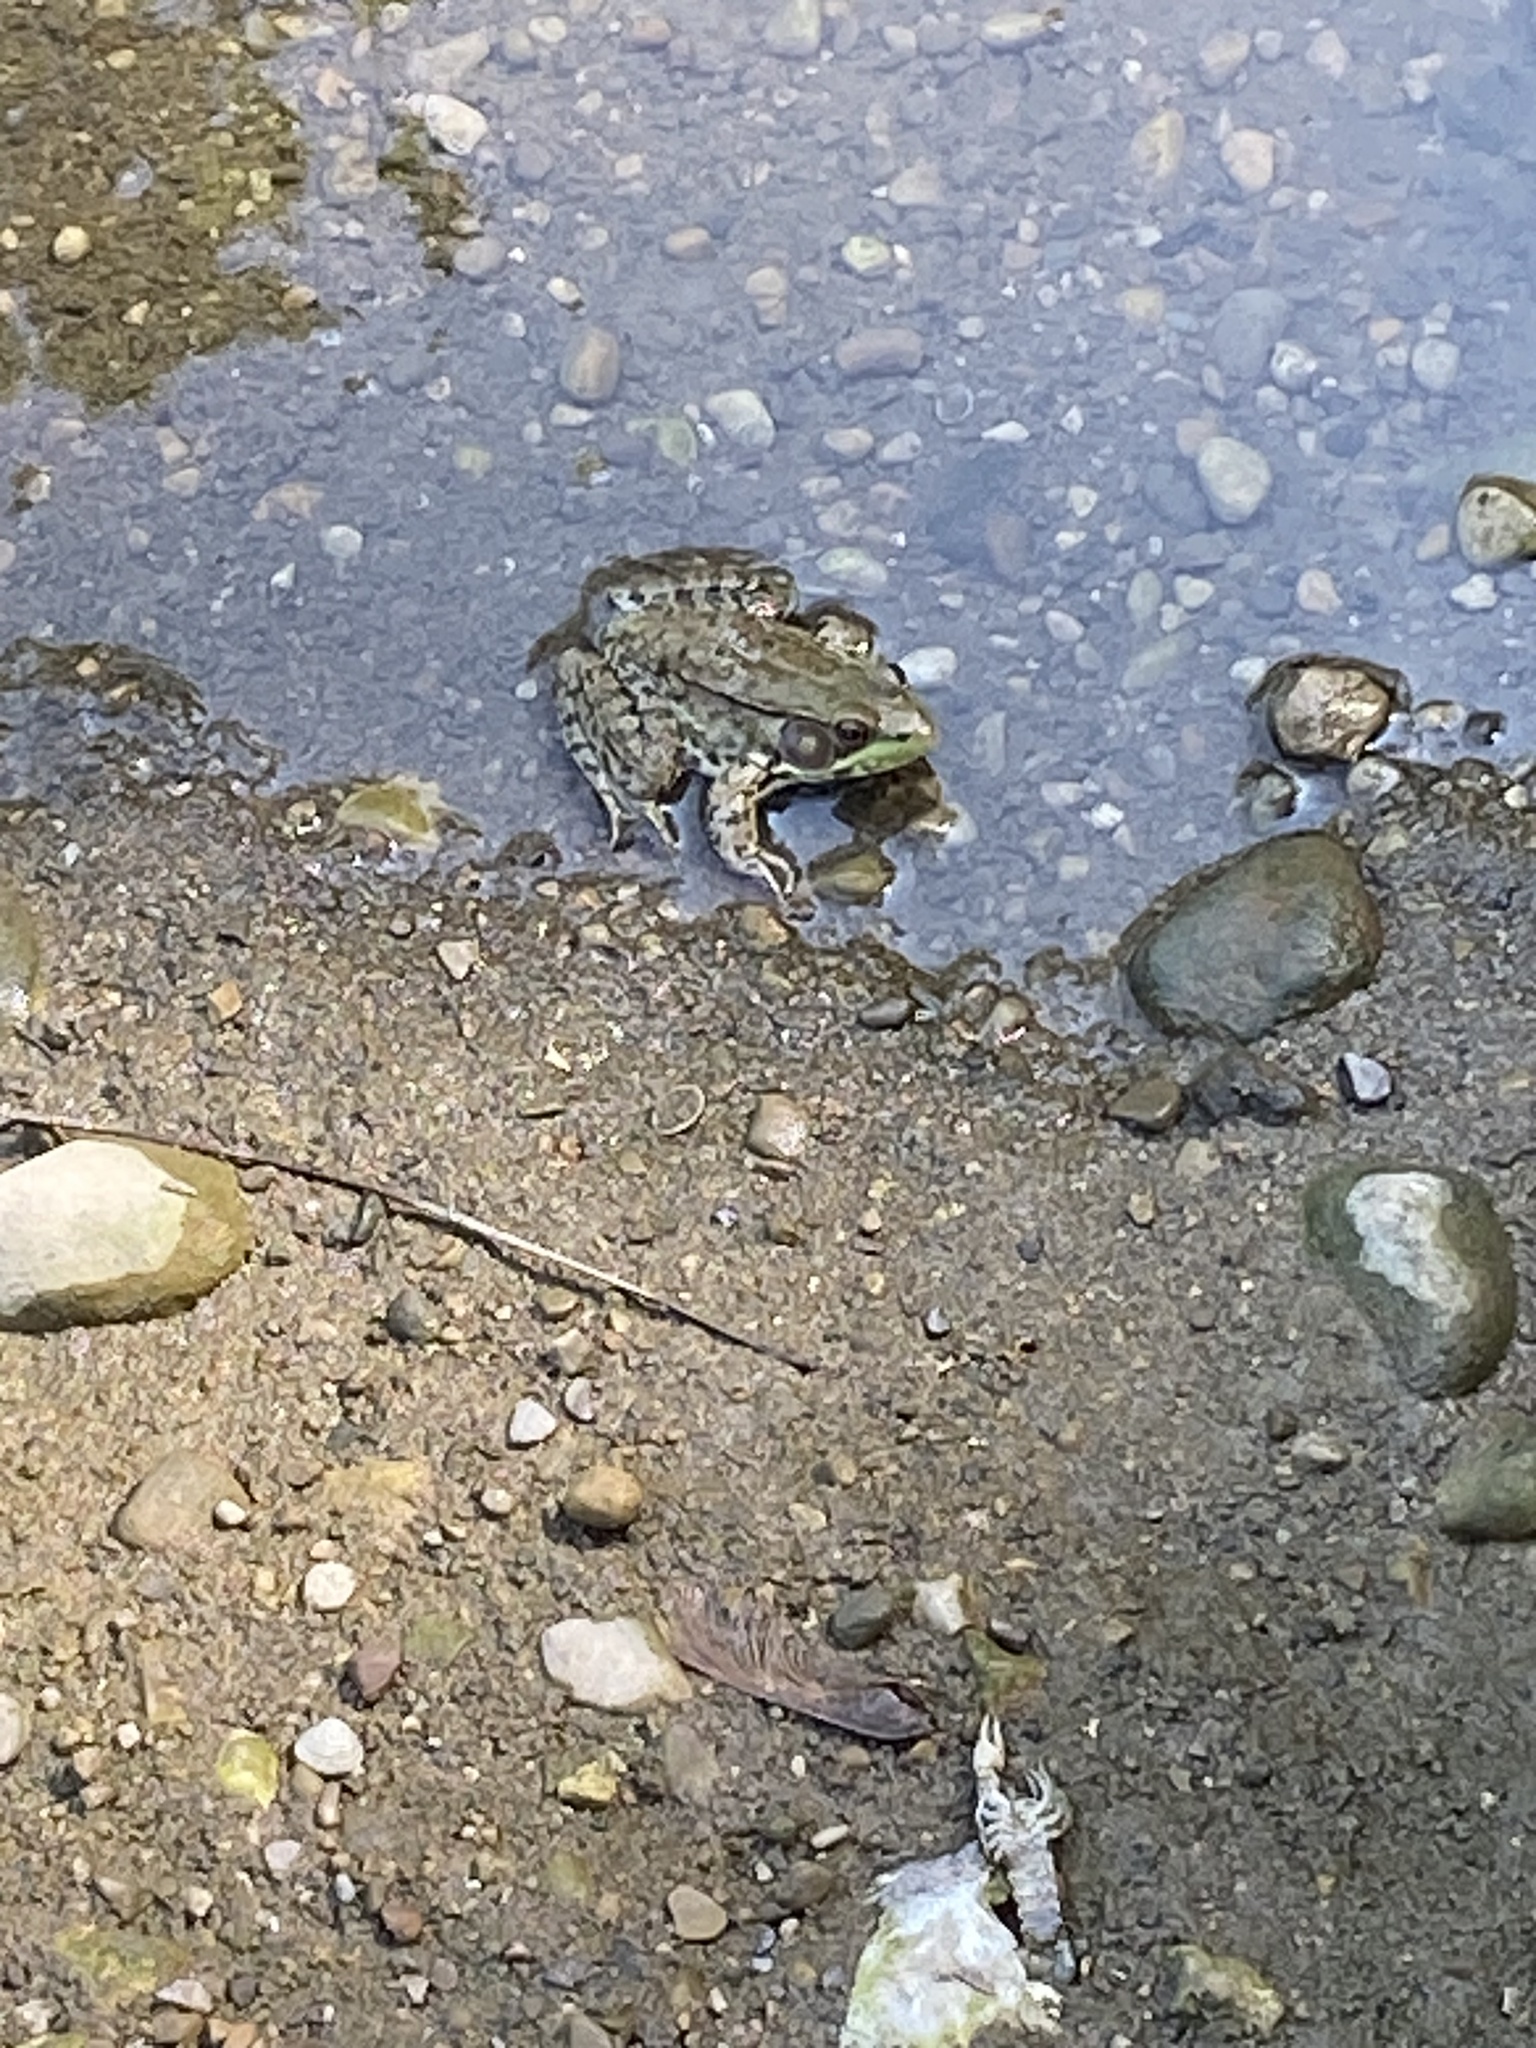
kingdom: Animalia
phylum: Chordata
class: Amphibia
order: Anura
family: Ranidae
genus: Lithobates
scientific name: Lithobates clamitans
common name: Green frog
